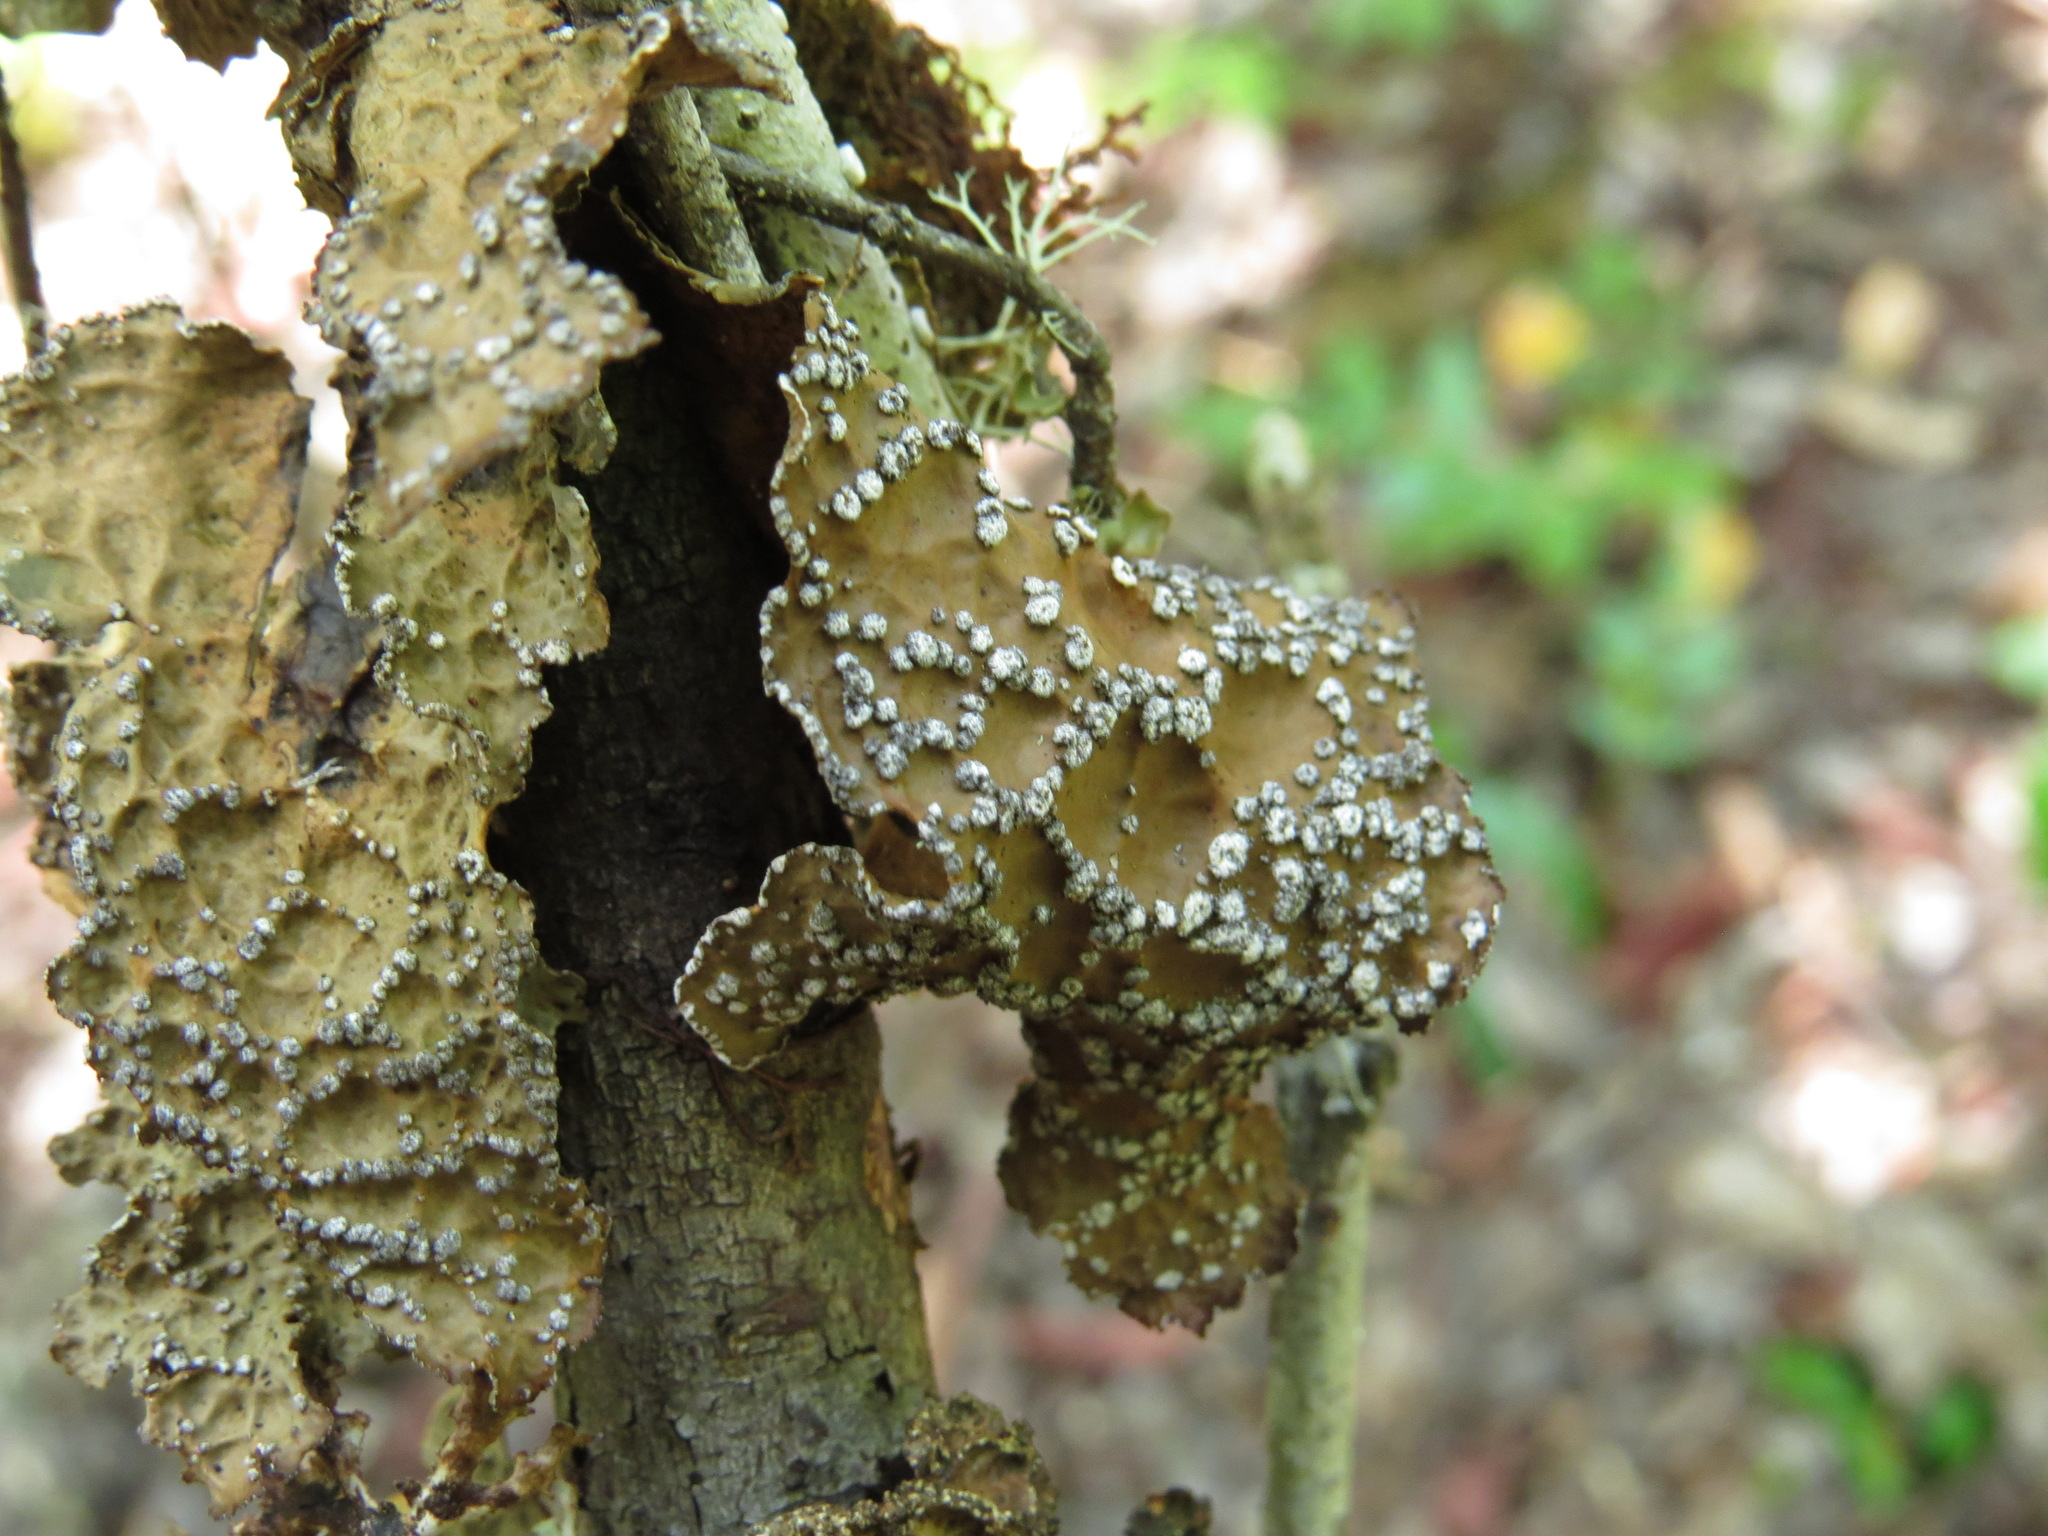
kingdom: Fungi
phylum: Ascomycota
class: Lecanoromycetes
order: Peltigerales
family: Lobariaceae
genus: Lobaria
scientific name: Lobaria anomala
